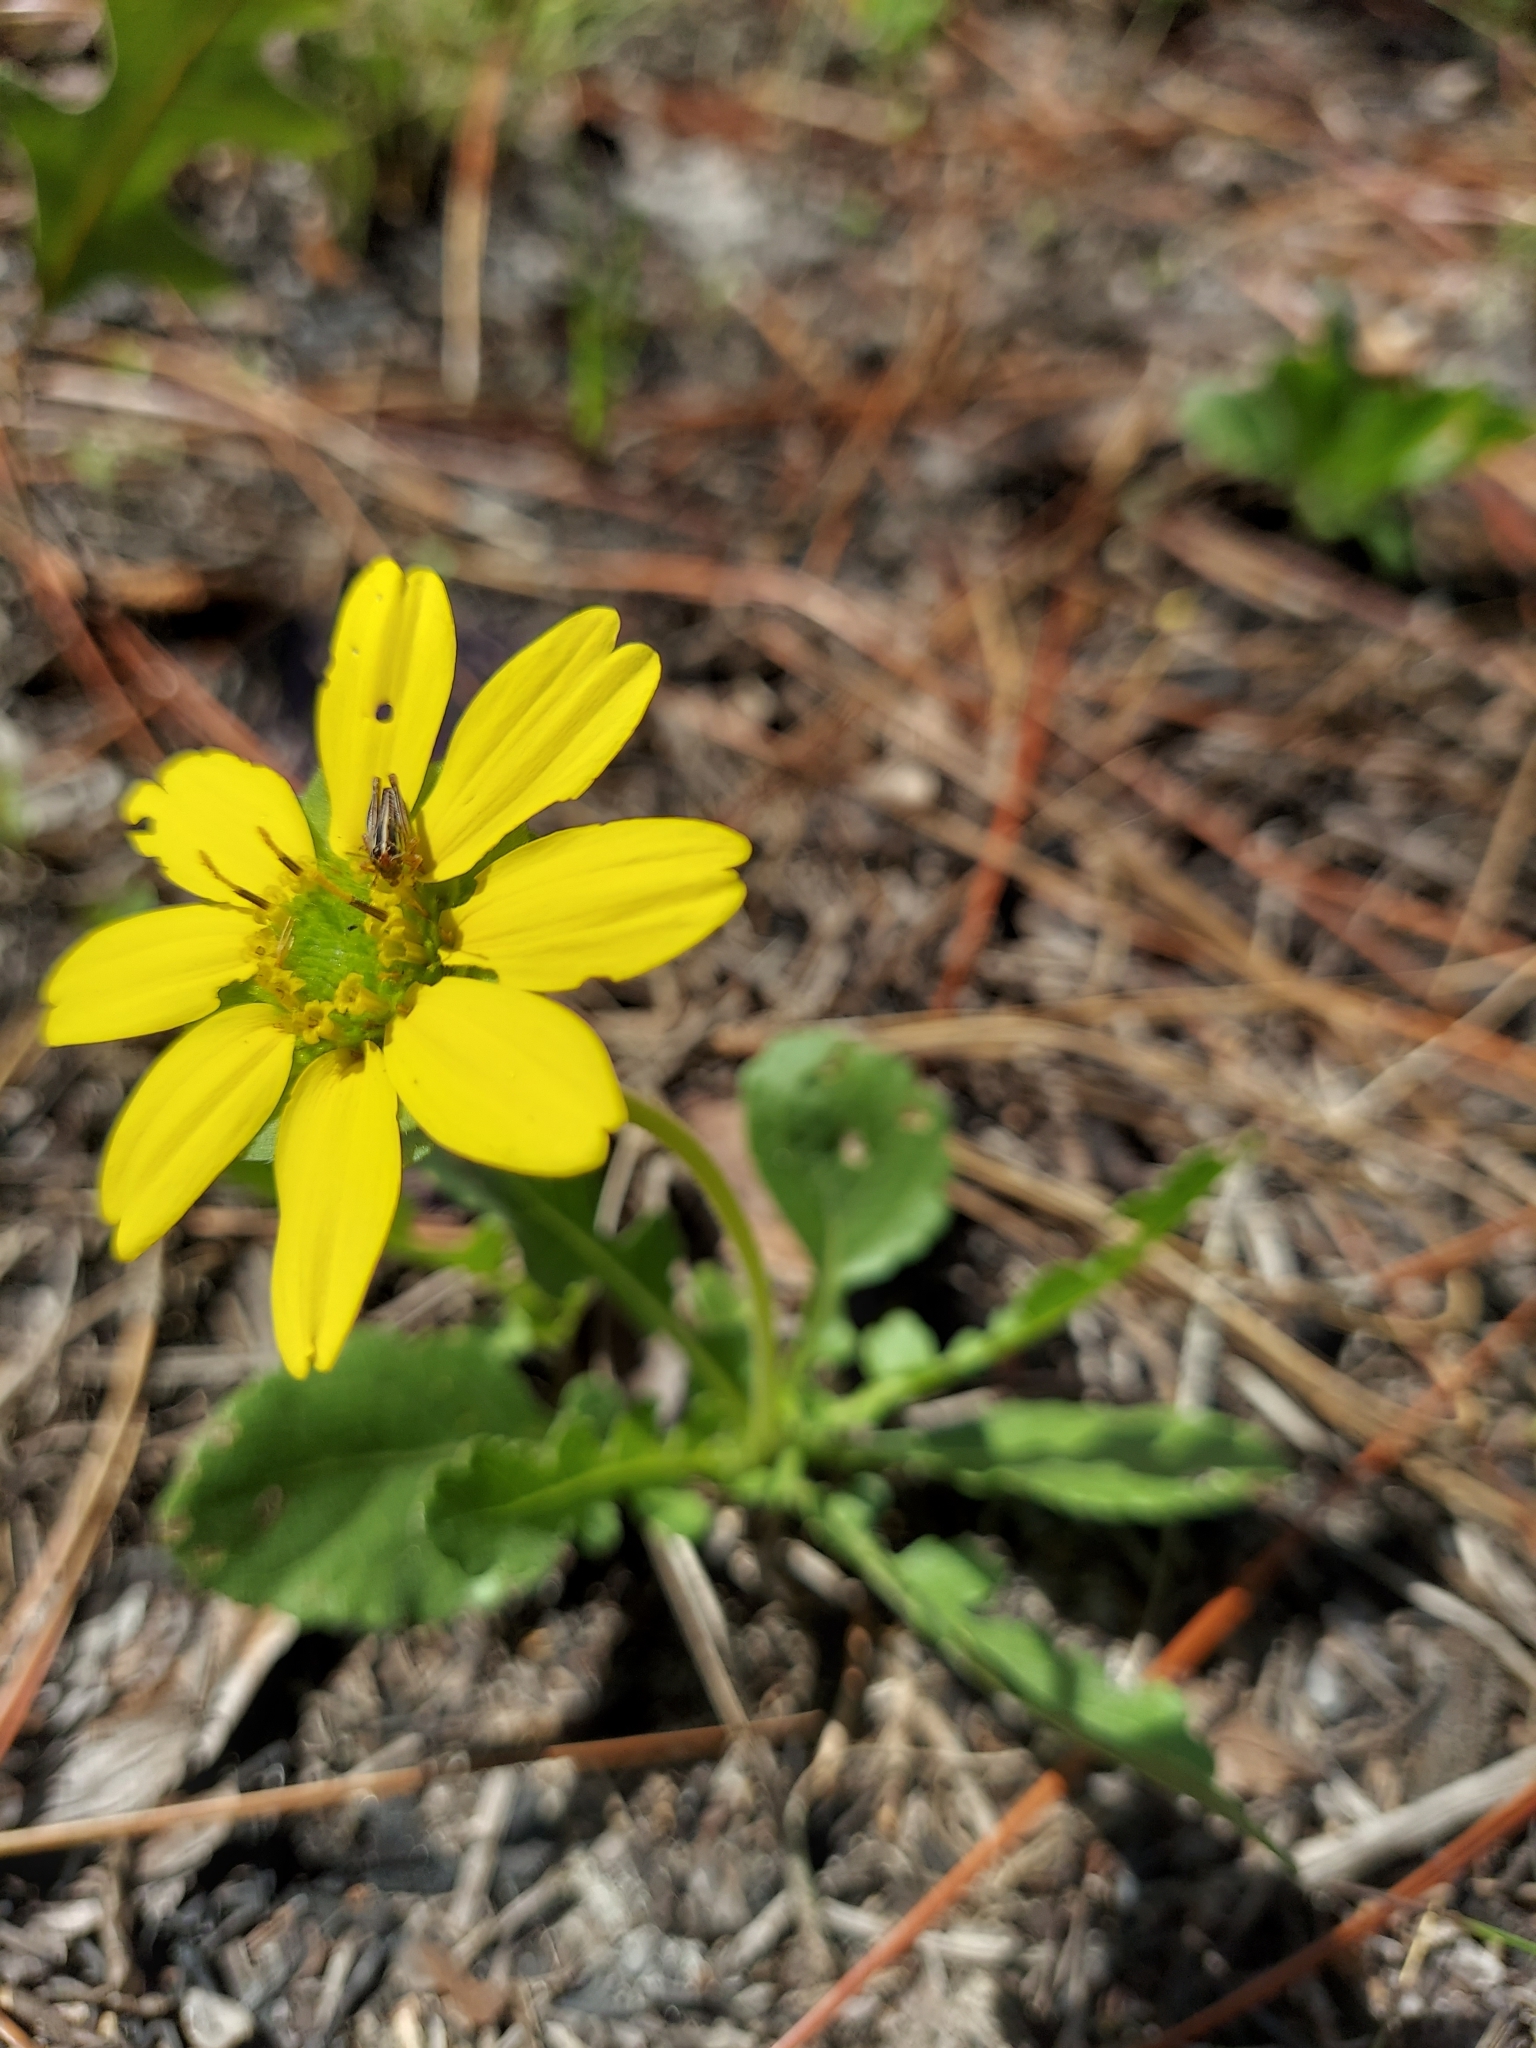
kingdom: Plantae
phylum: Tracheophyta
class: Magnoliopsida
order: Asterales
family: Asteraceae
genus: Berlandiera
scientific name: Berlandiera subacaulis
